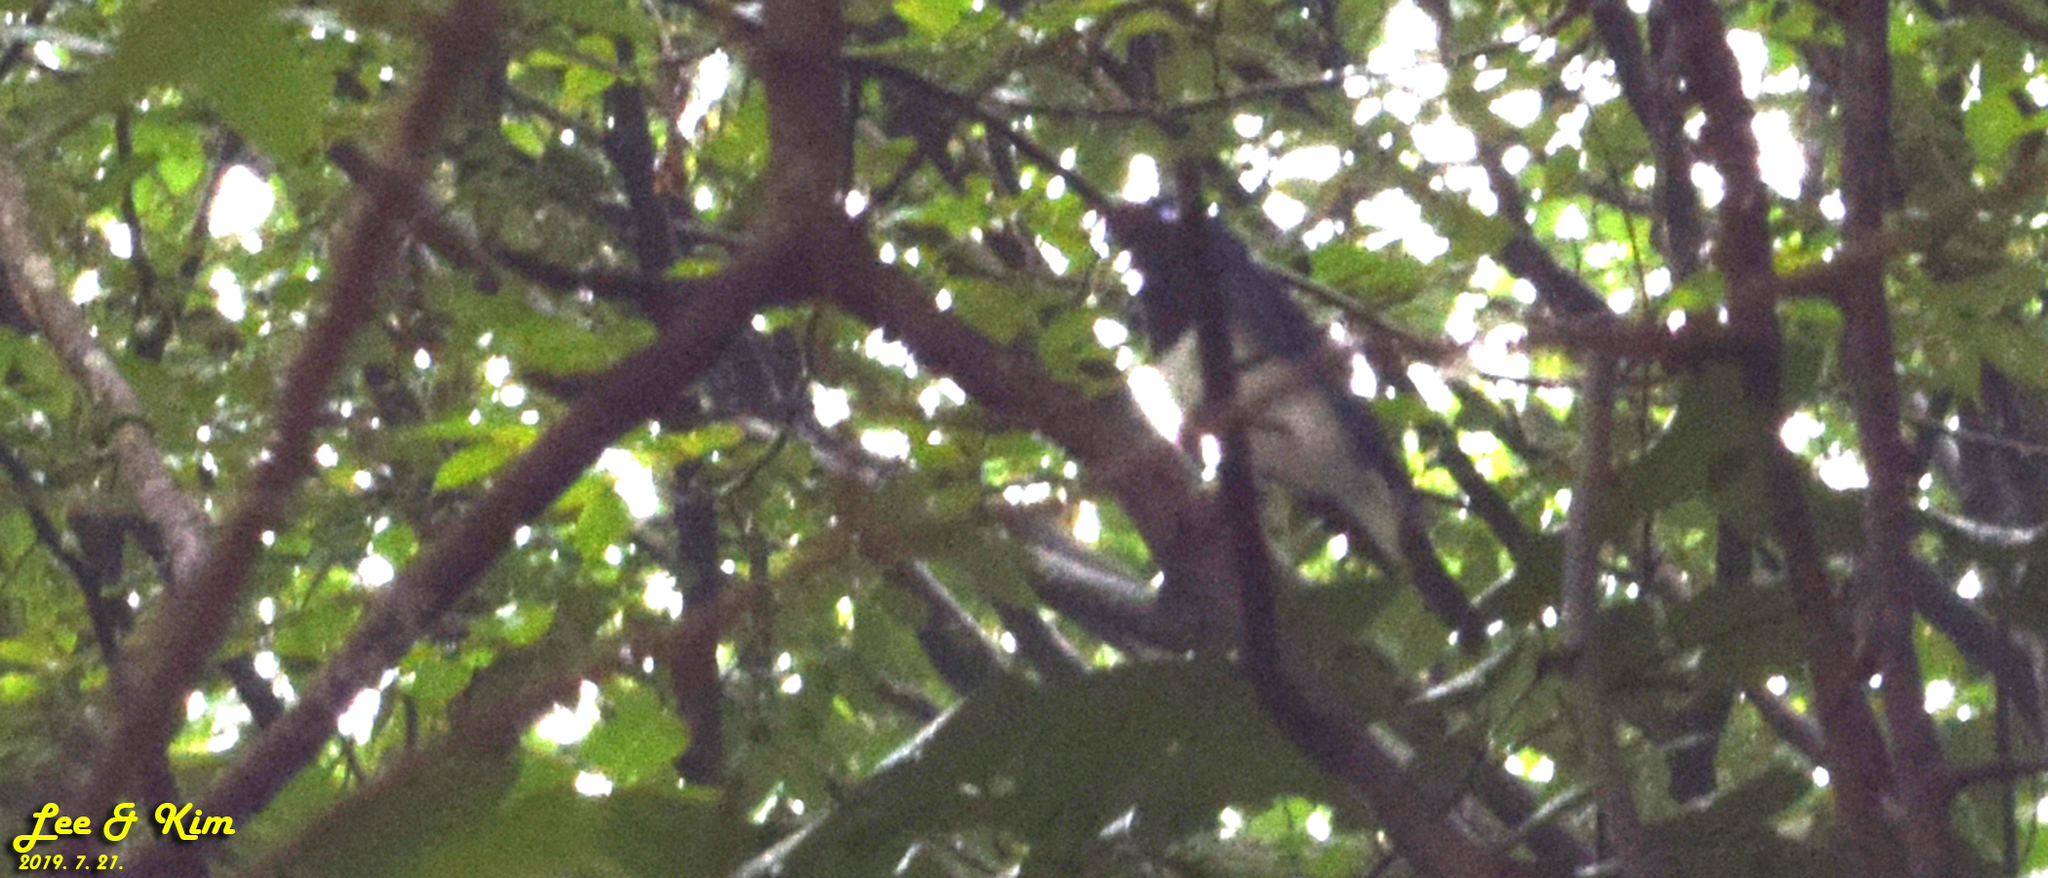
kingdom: Animalia
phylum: Chordata
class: Aves
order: Passeriformes
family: Muscicapidae
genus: Cyanoptila
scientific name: Cyanoptila cyanomelana
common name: Blue-and-white flycatcher
